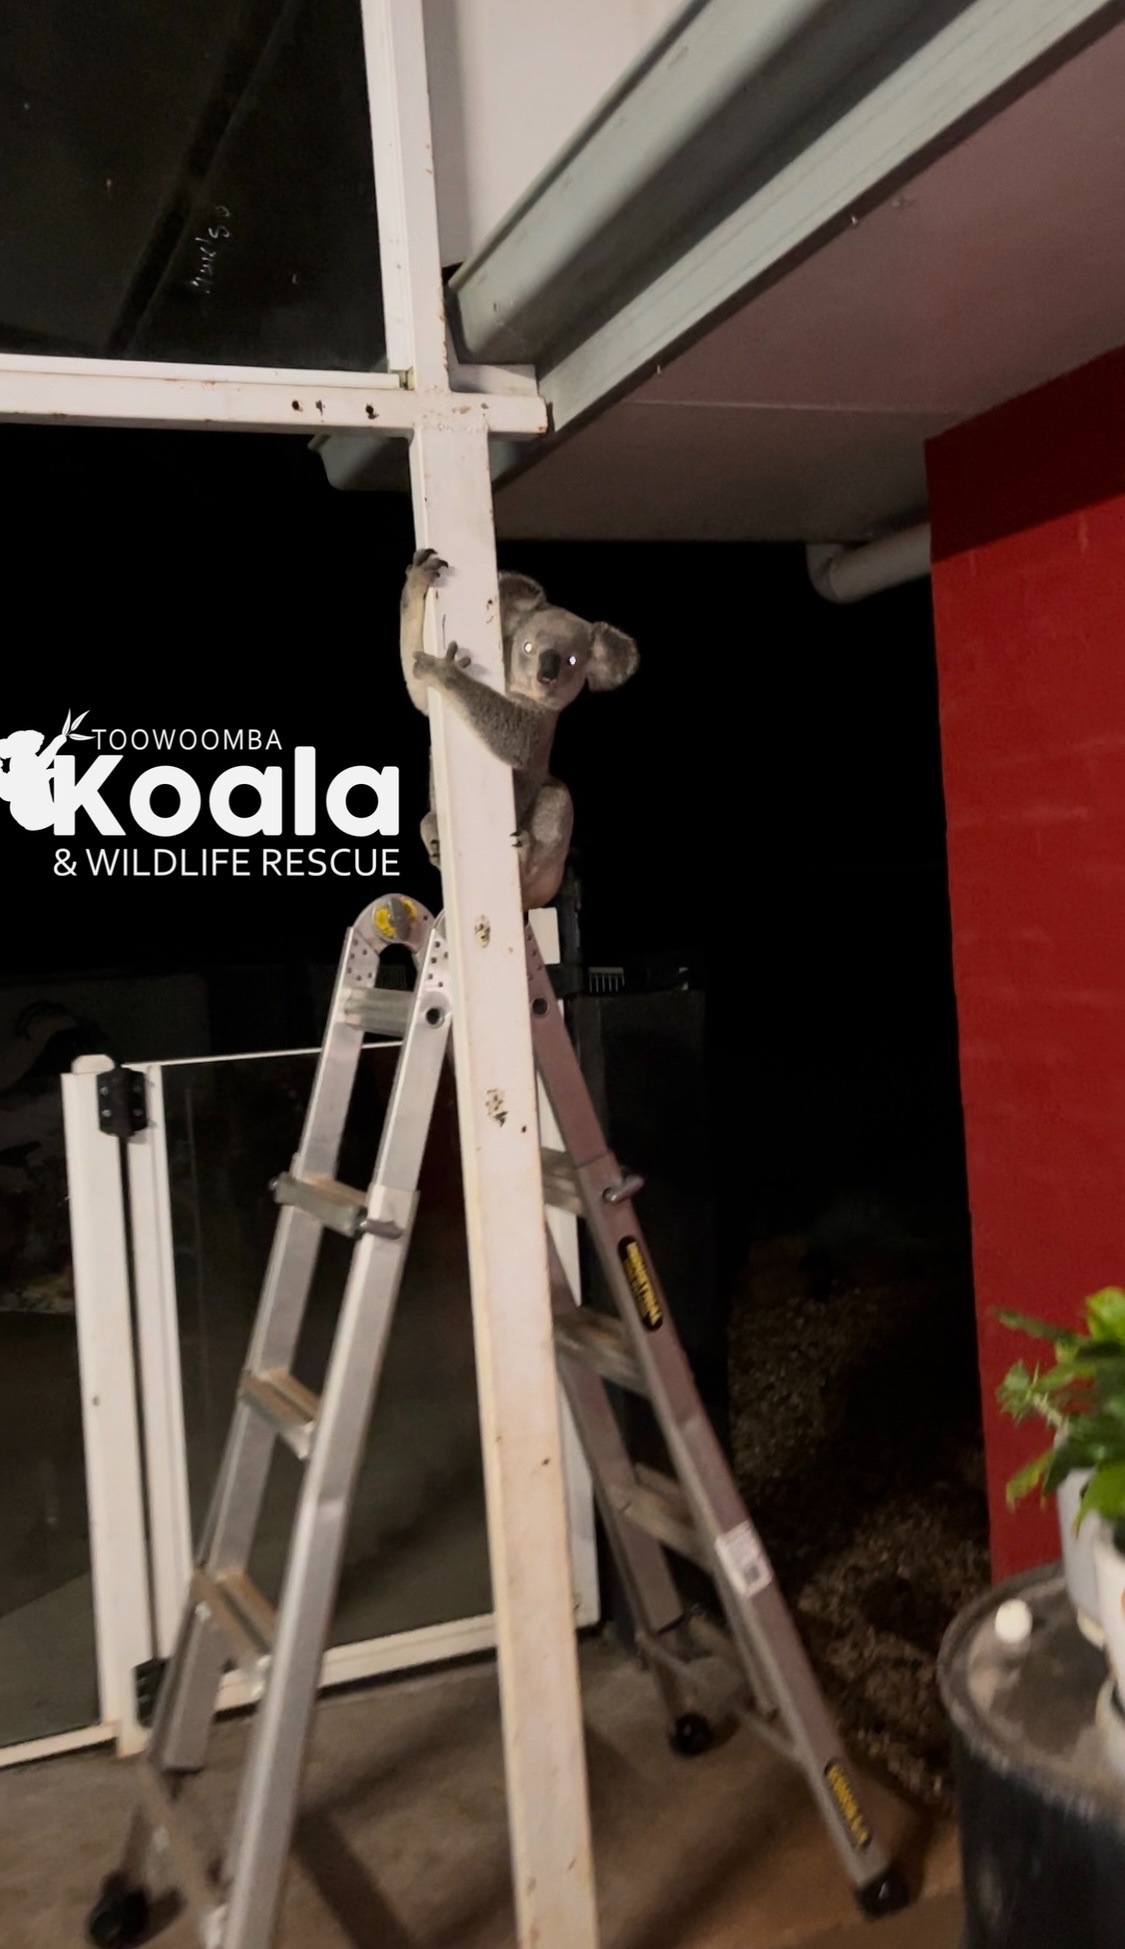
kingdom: Animalia
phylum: Chordata
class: Mammalia
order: Diprotodontia
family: Phascolarctidae
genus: Phascolarctos
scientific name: Phascolarctos cinereus
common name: Koala
